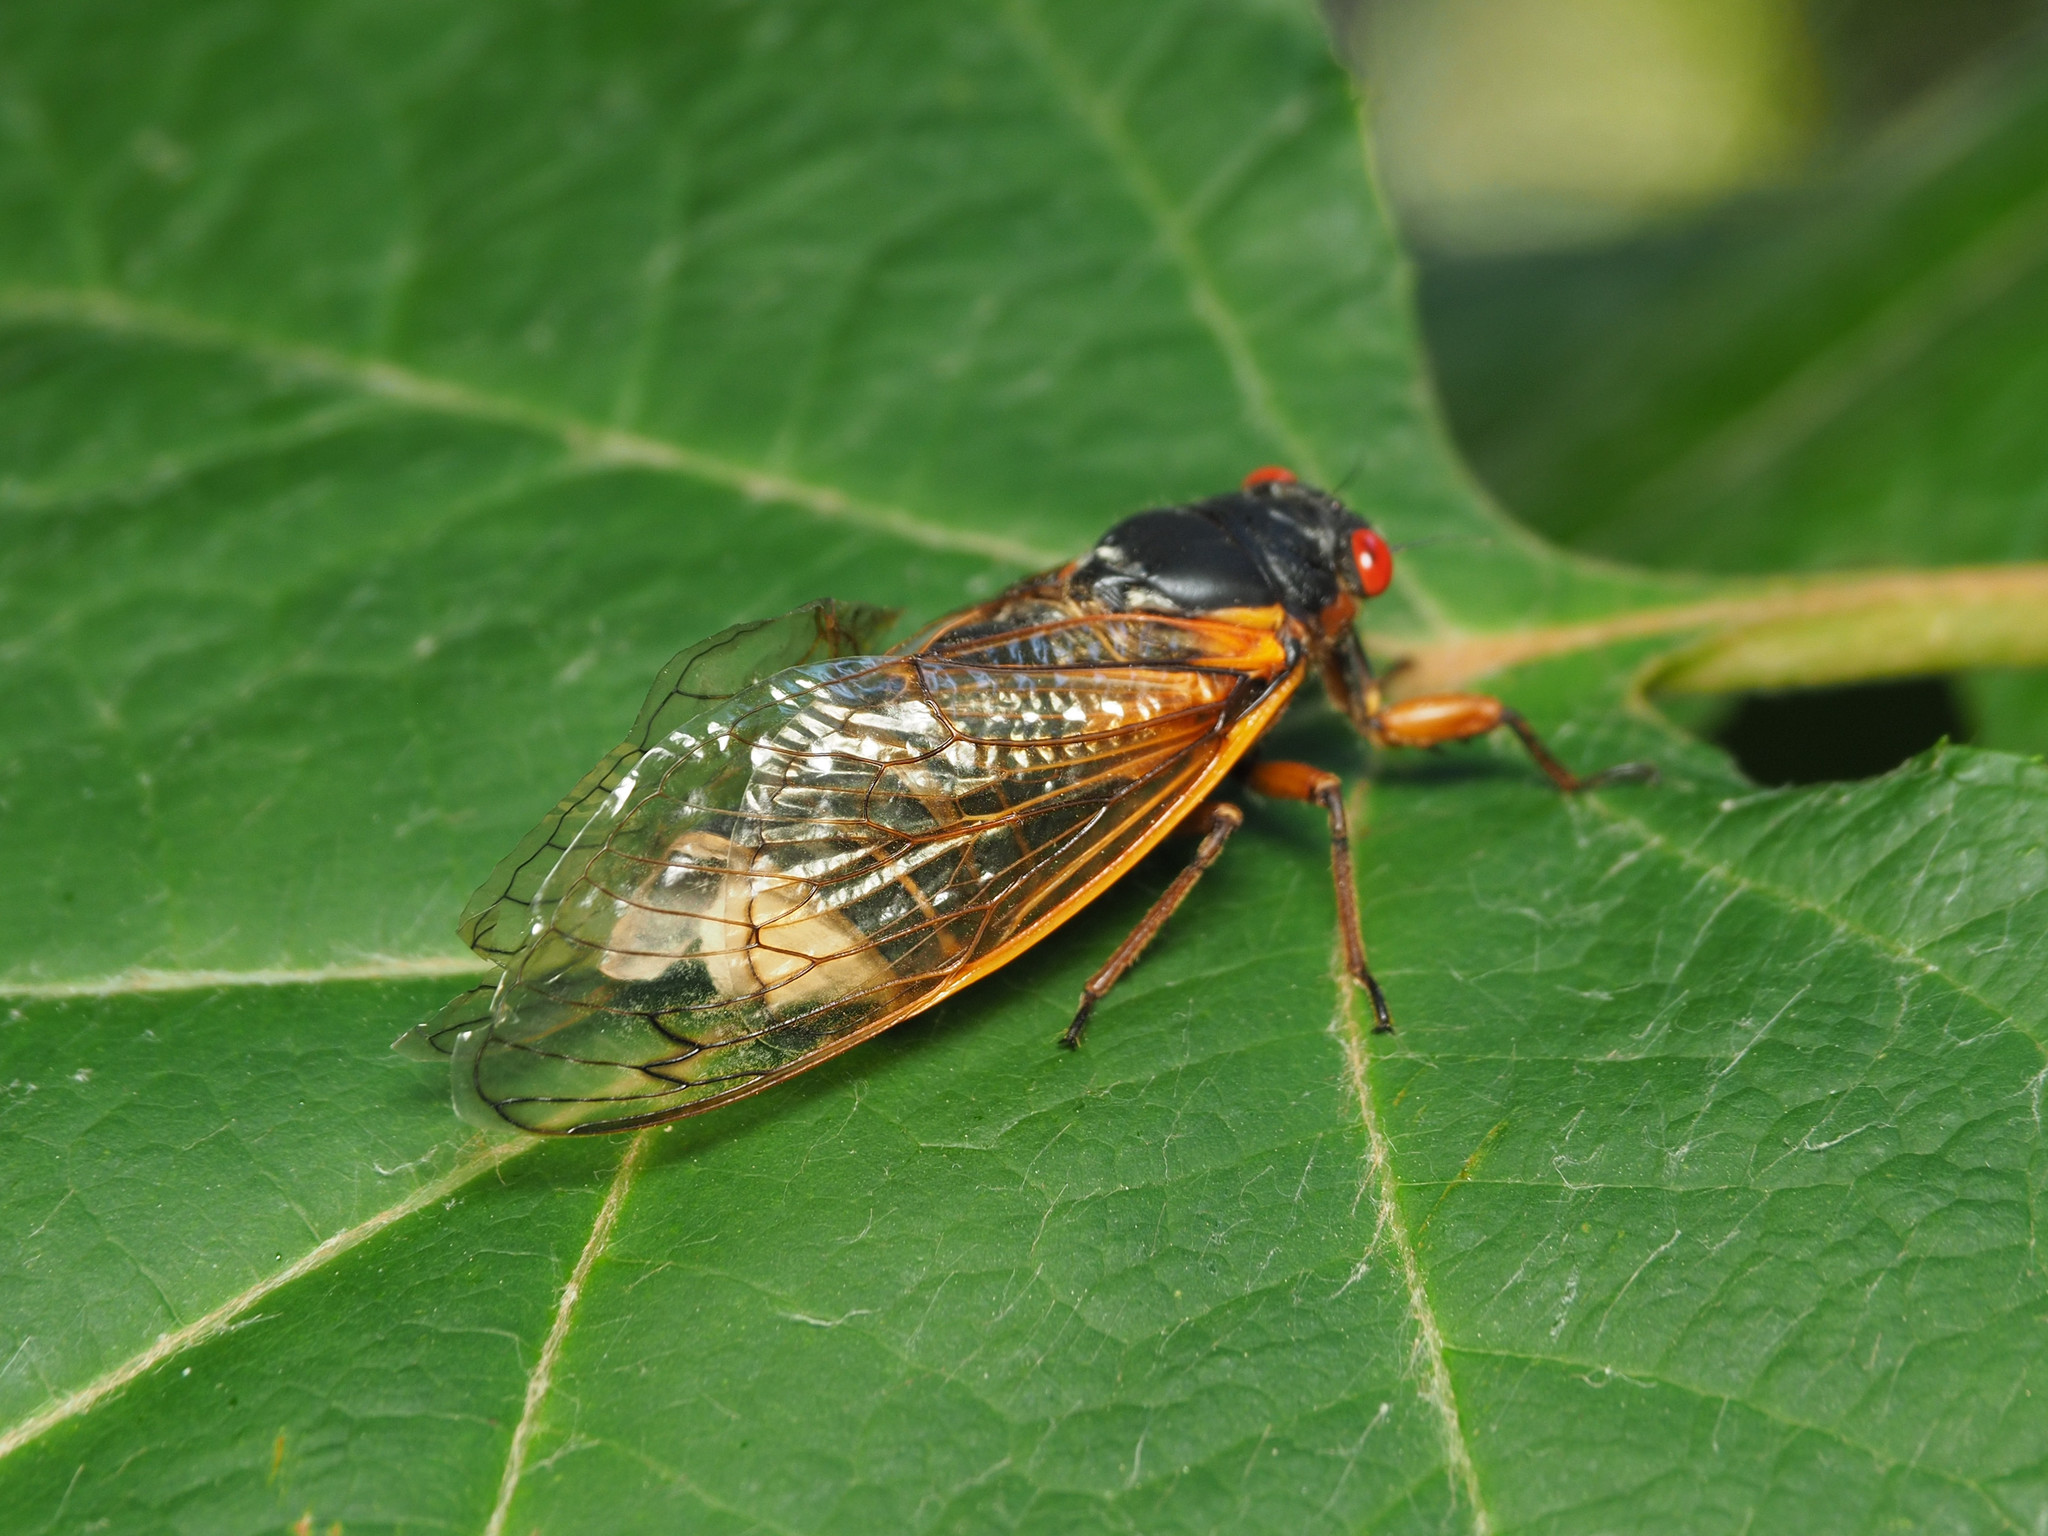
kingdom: Fungi
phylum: Entomophthoromycota
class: Entomophthoromycetes
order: Entomophthorales
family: Entomophthoraceae
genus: Massospora
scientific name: Massospora cicadina
